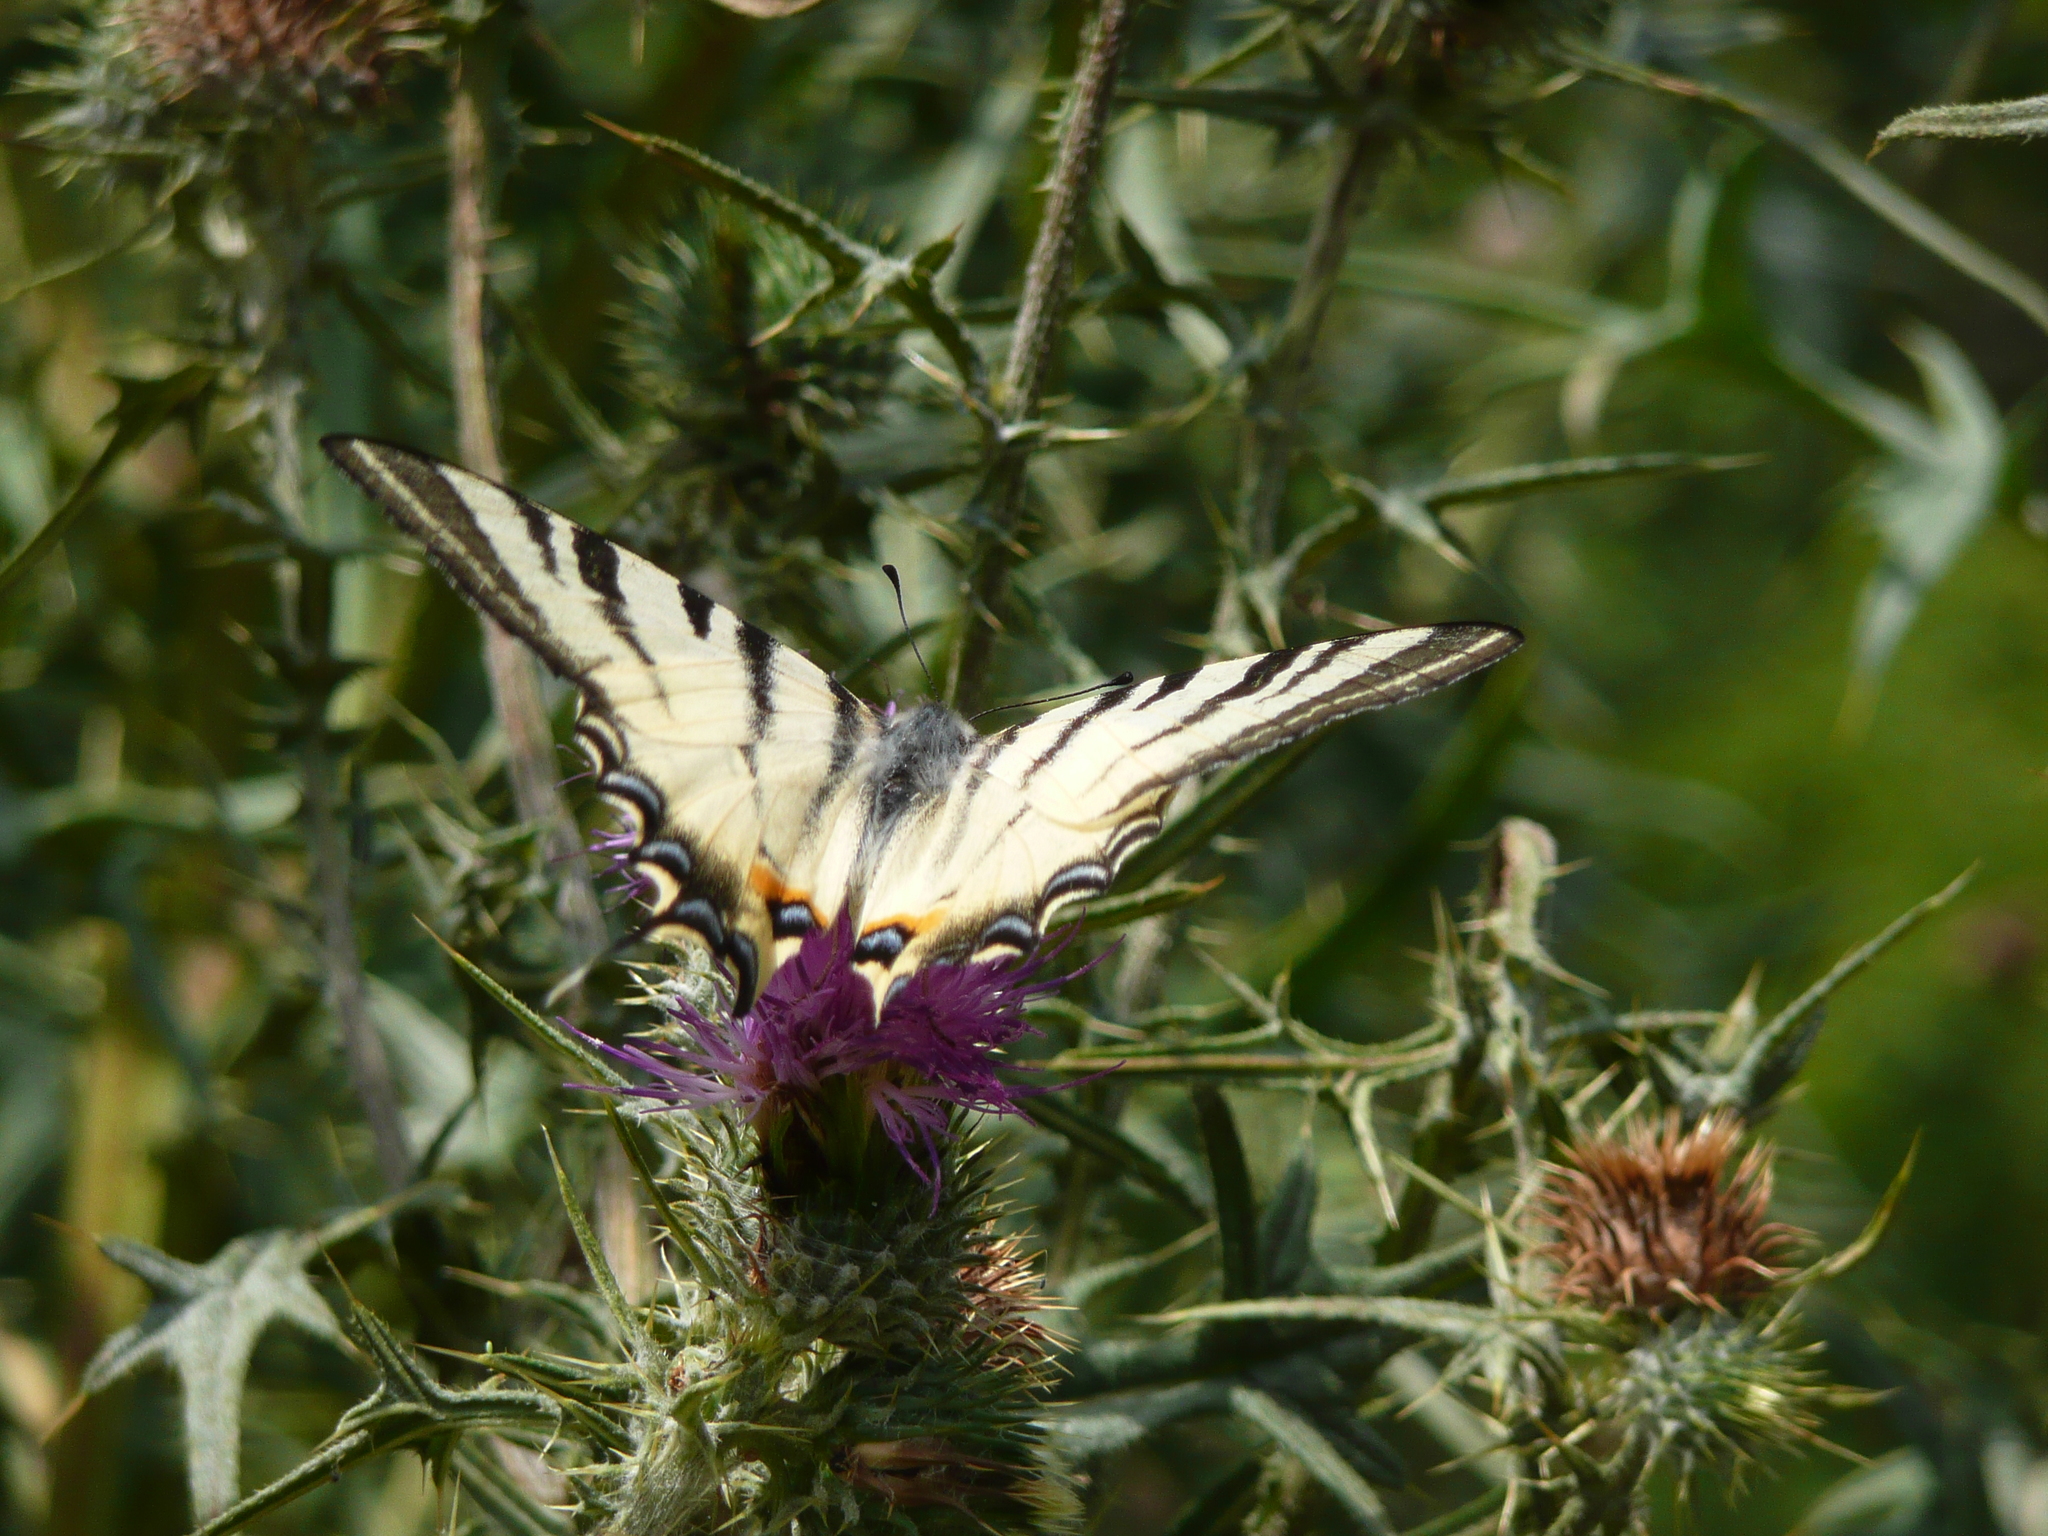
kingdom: Animalia
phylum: Arthropoda
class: Insecta
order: Lepidoptera
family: Papilionidae
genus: Iphiclides
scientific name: Iphiclides podalirius
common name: Scarce swallowtail
